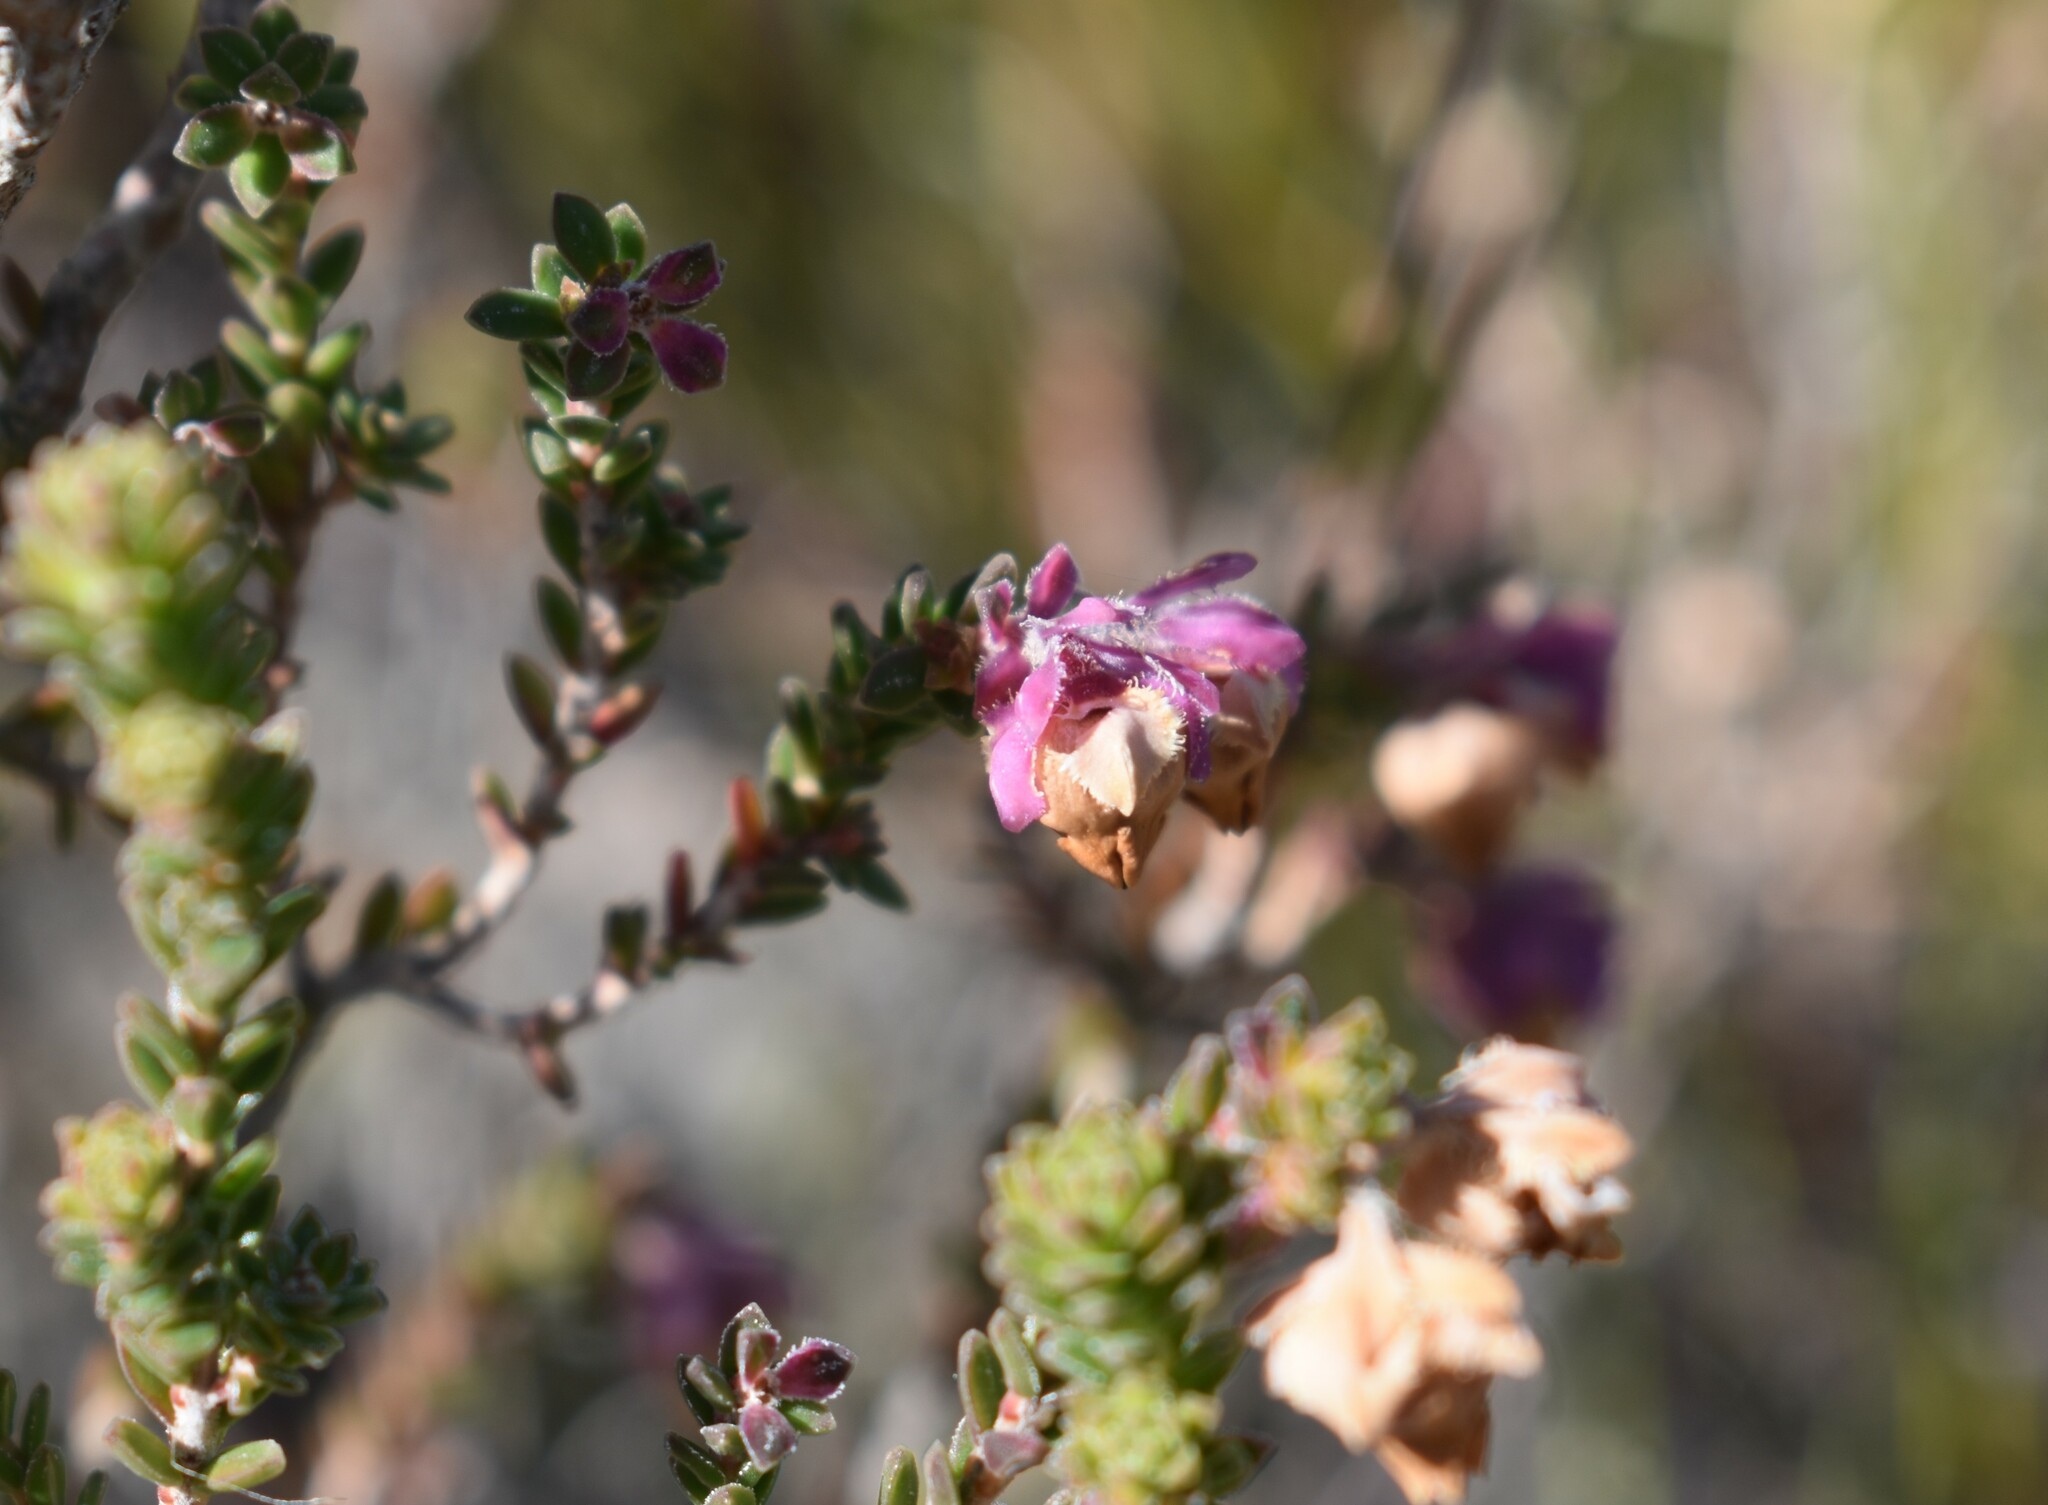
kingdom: Plantae
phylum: Tracheophyta
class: Magnoliopsida
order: Ericales
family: Ericaceae
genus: Erica
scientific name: Erica fimbriata
